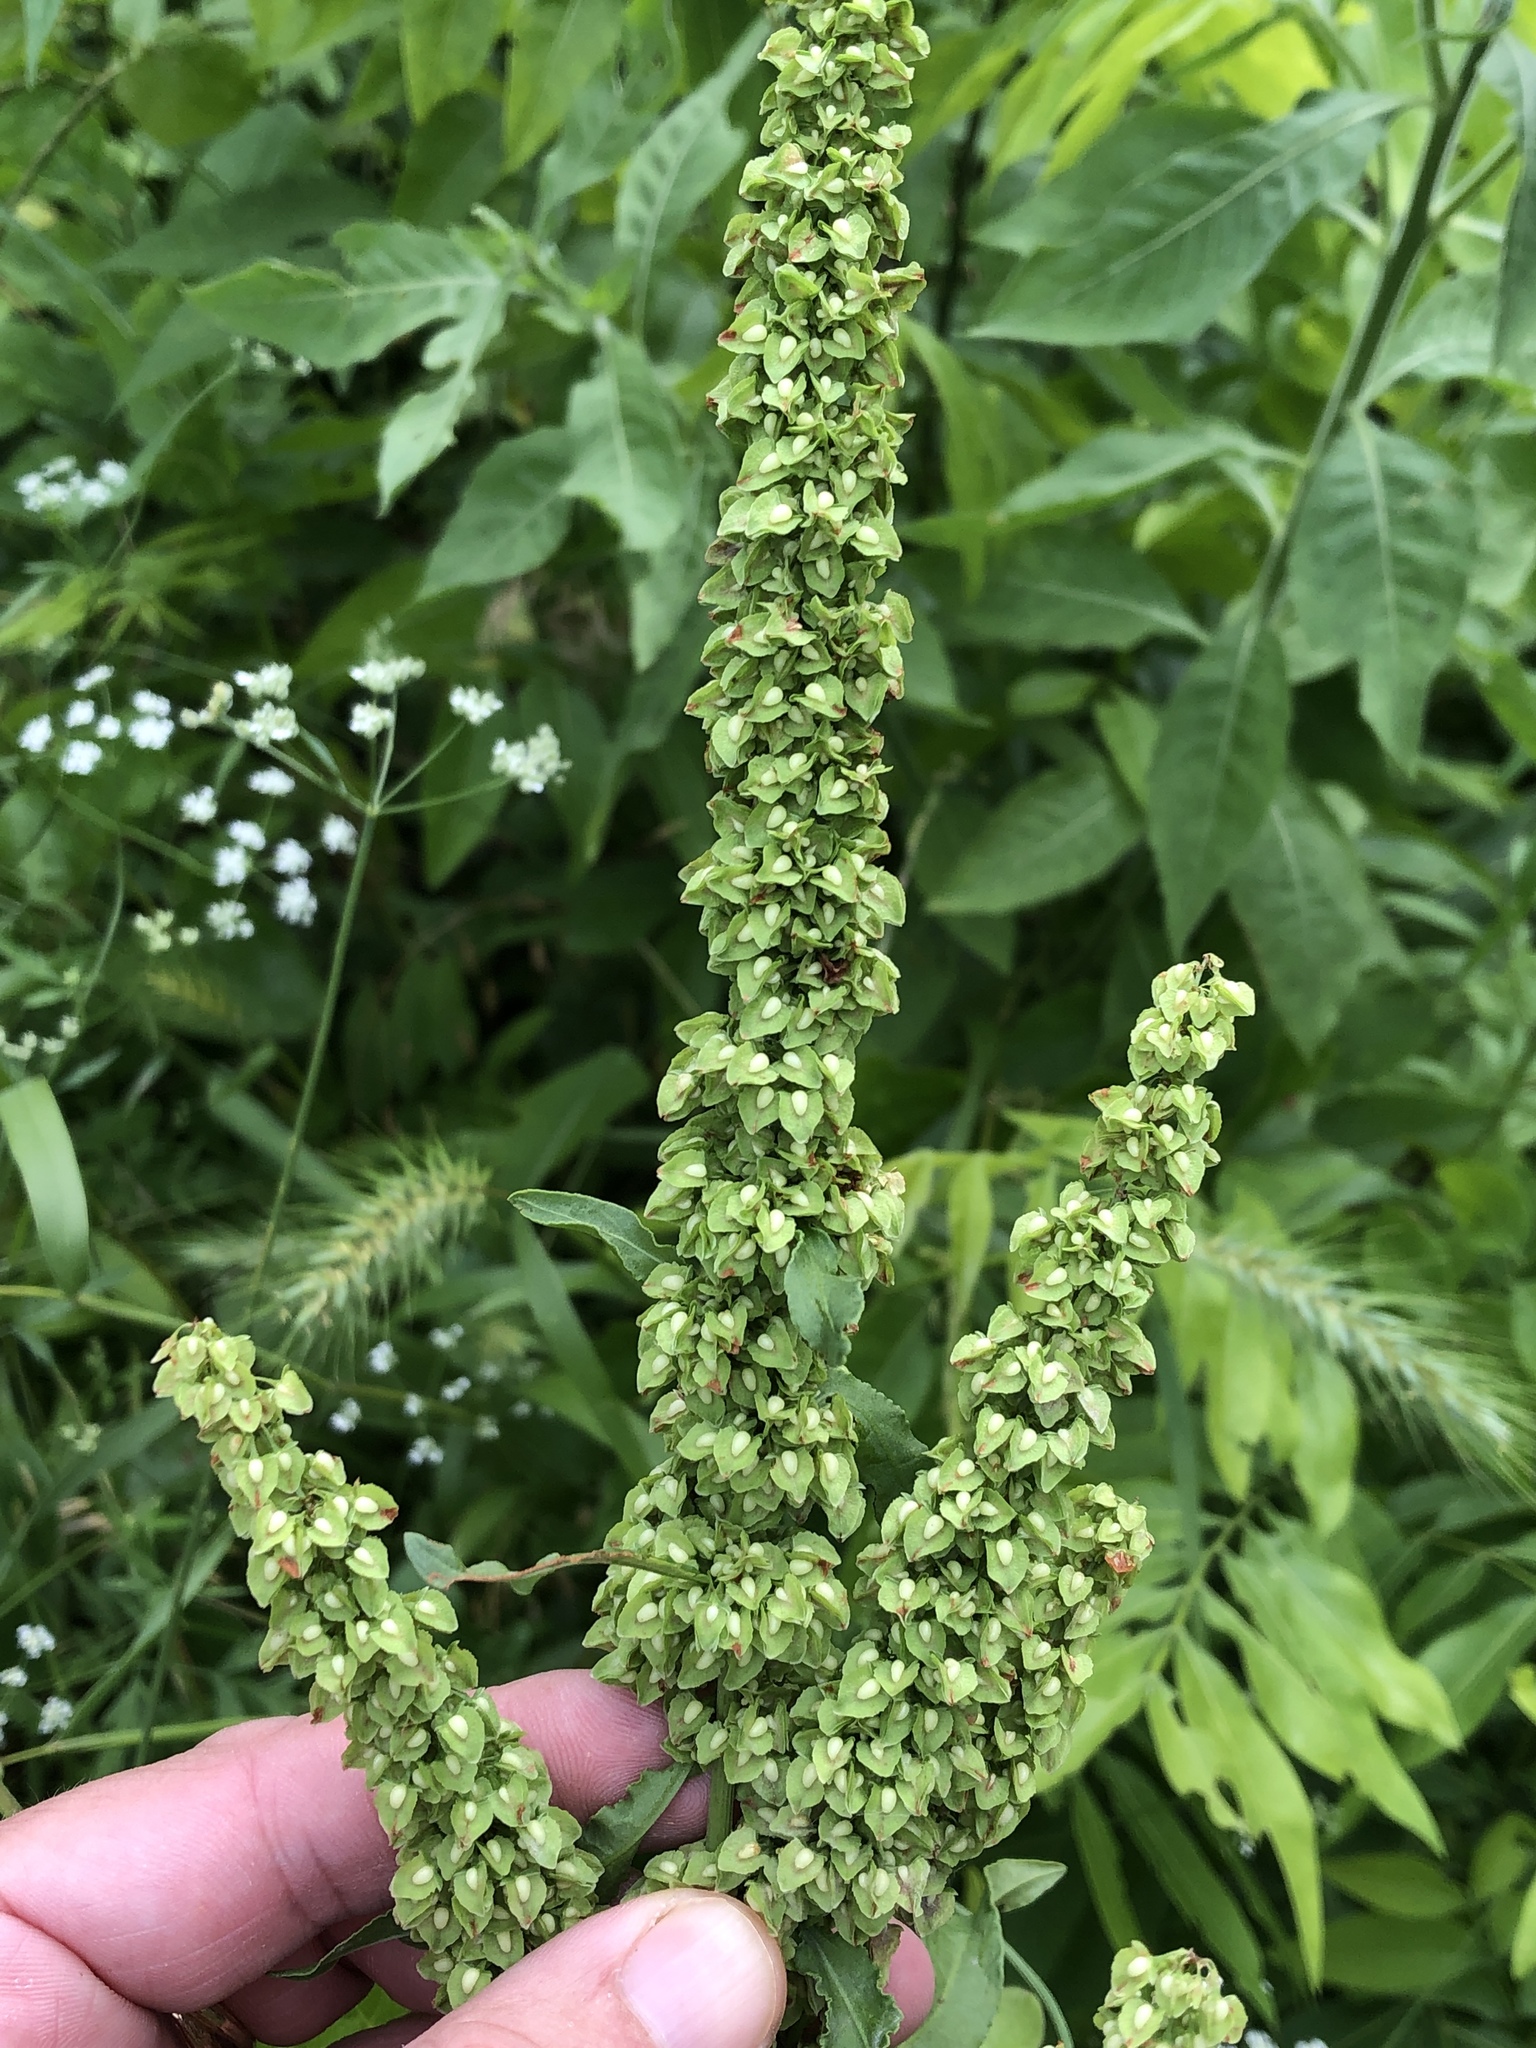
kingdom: Plantae
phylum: Tracheophyta
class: Magnoliopsida
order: Caryophyllales
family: Polygonaceae
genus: Rumex
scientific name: Rumex crispus
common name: Curled dock
